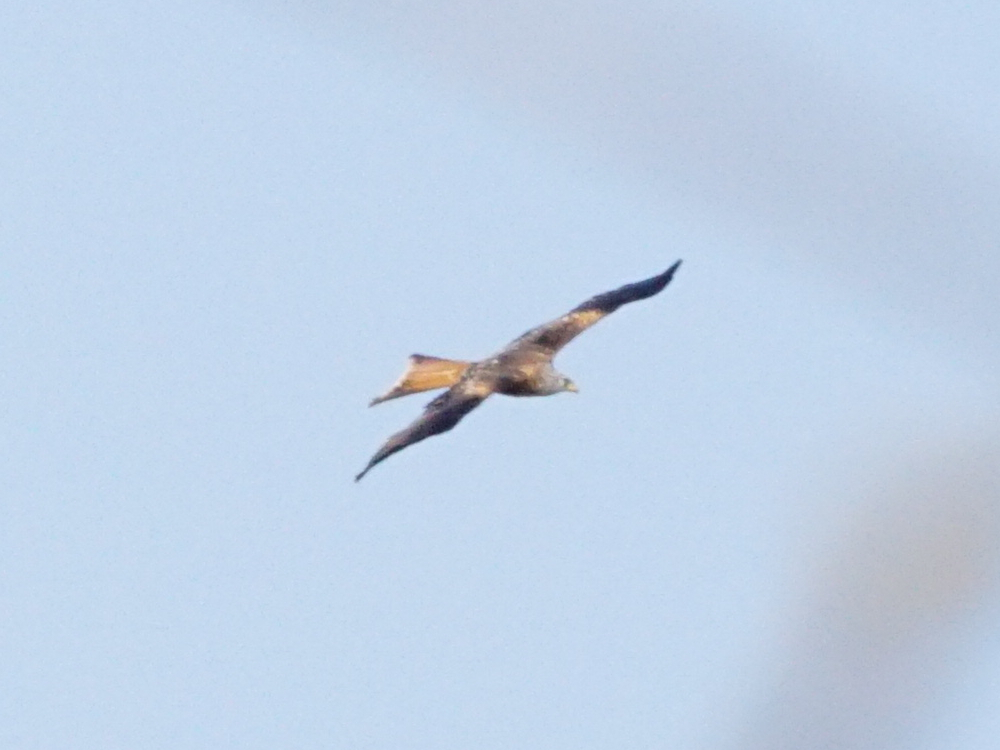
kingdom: Animalia
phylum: Chordata
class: Aves
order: Accipitriformes
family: Accipitridae
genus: Milvus
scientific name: Milvus milvus
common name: Red kite
